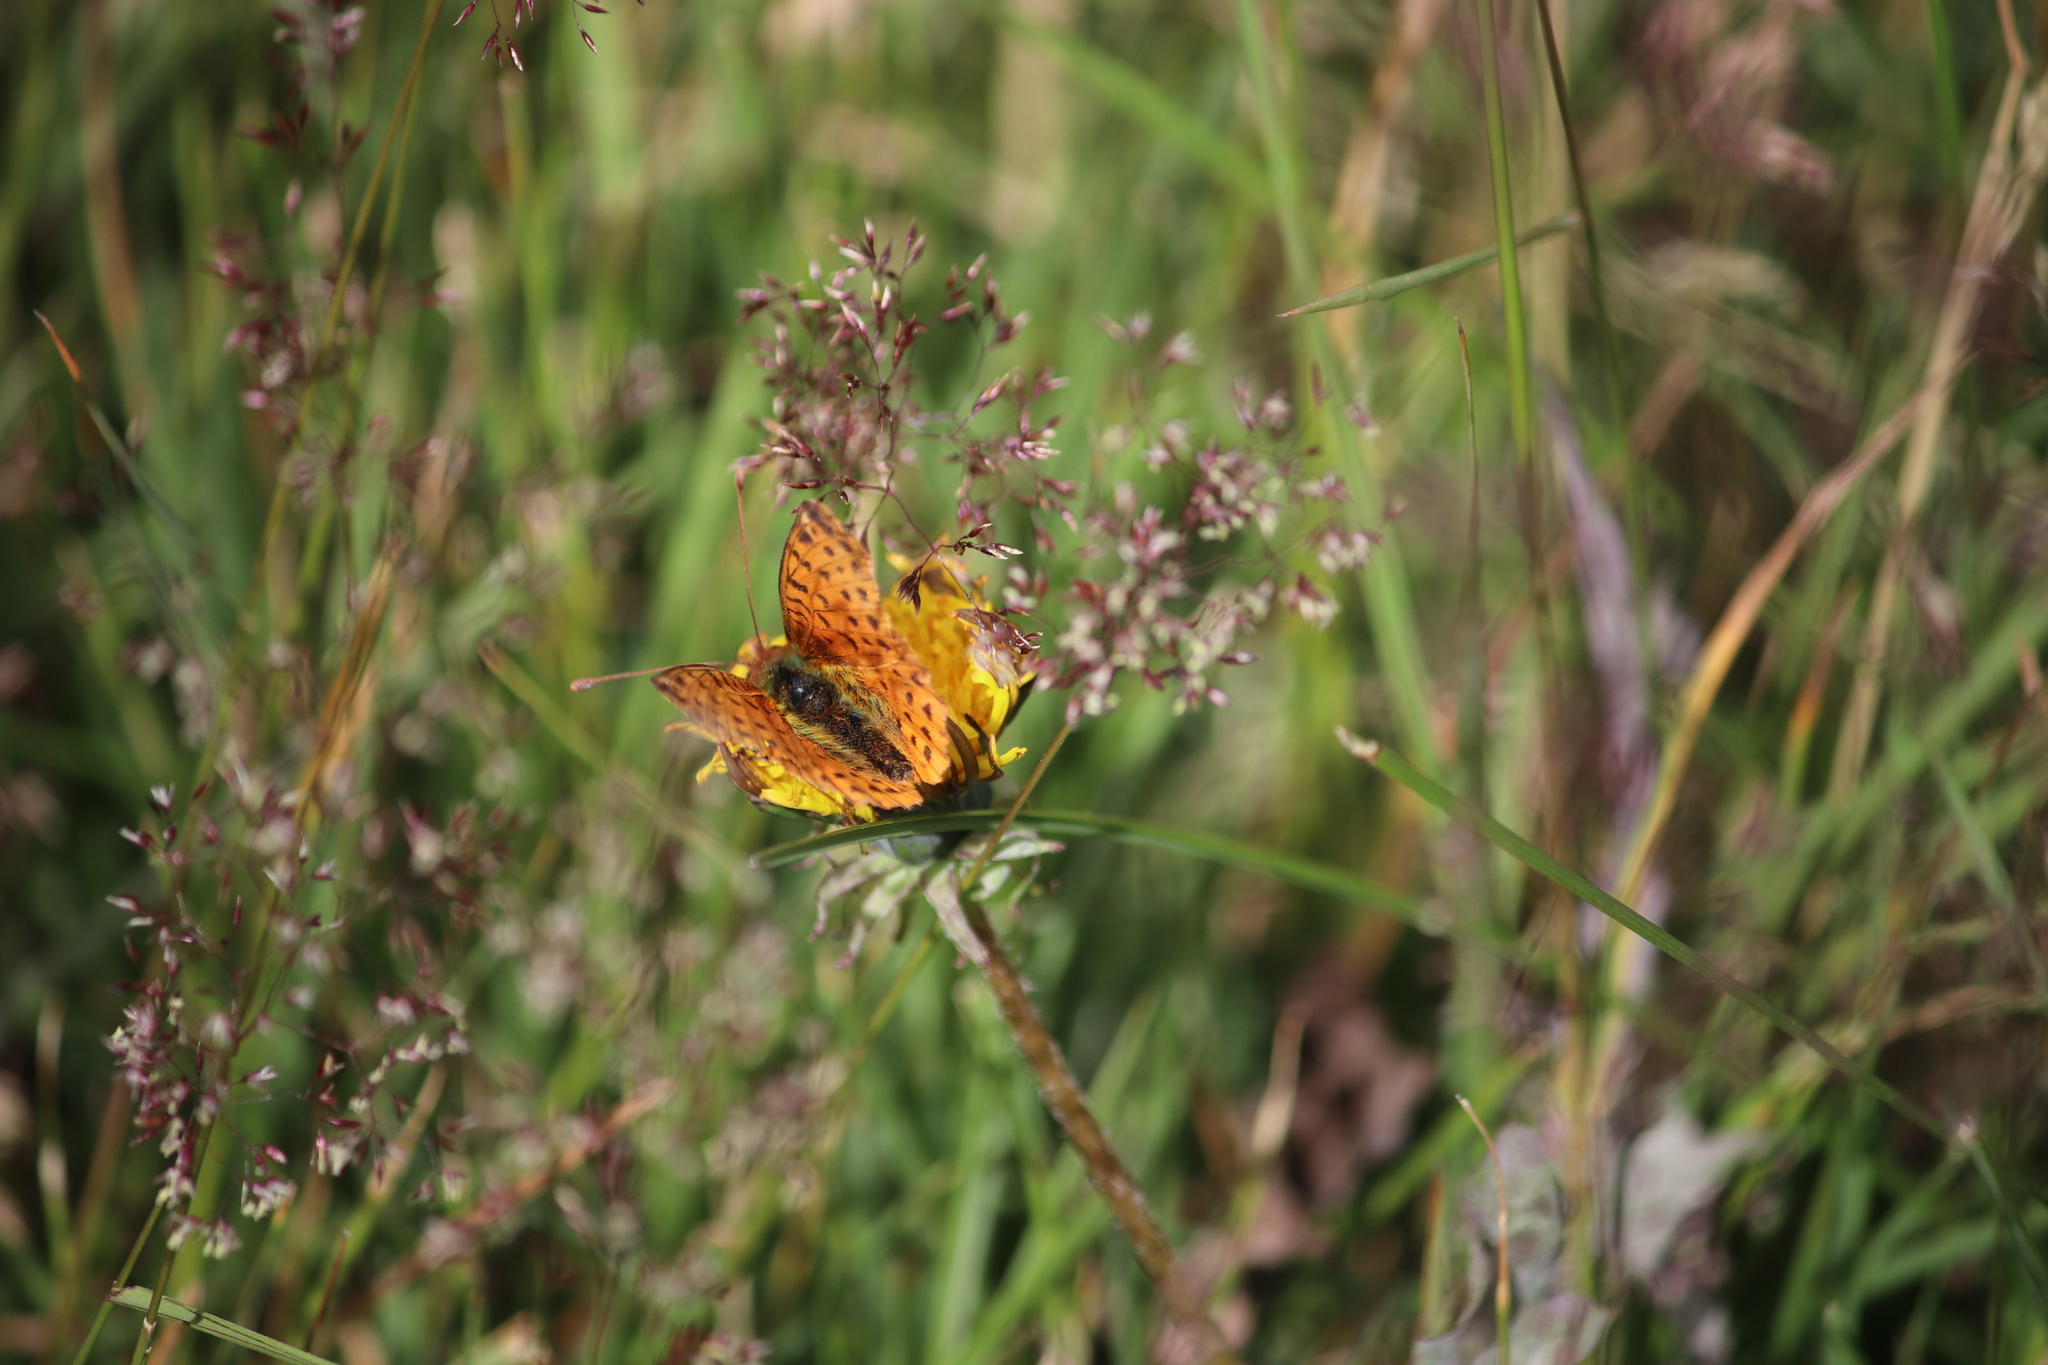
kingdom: Animalia
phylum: Arthropoda
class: Insecta
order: Lepidoptera
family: Nymphalidae
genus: Issoria
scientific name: Issoria Yramea cytheris
